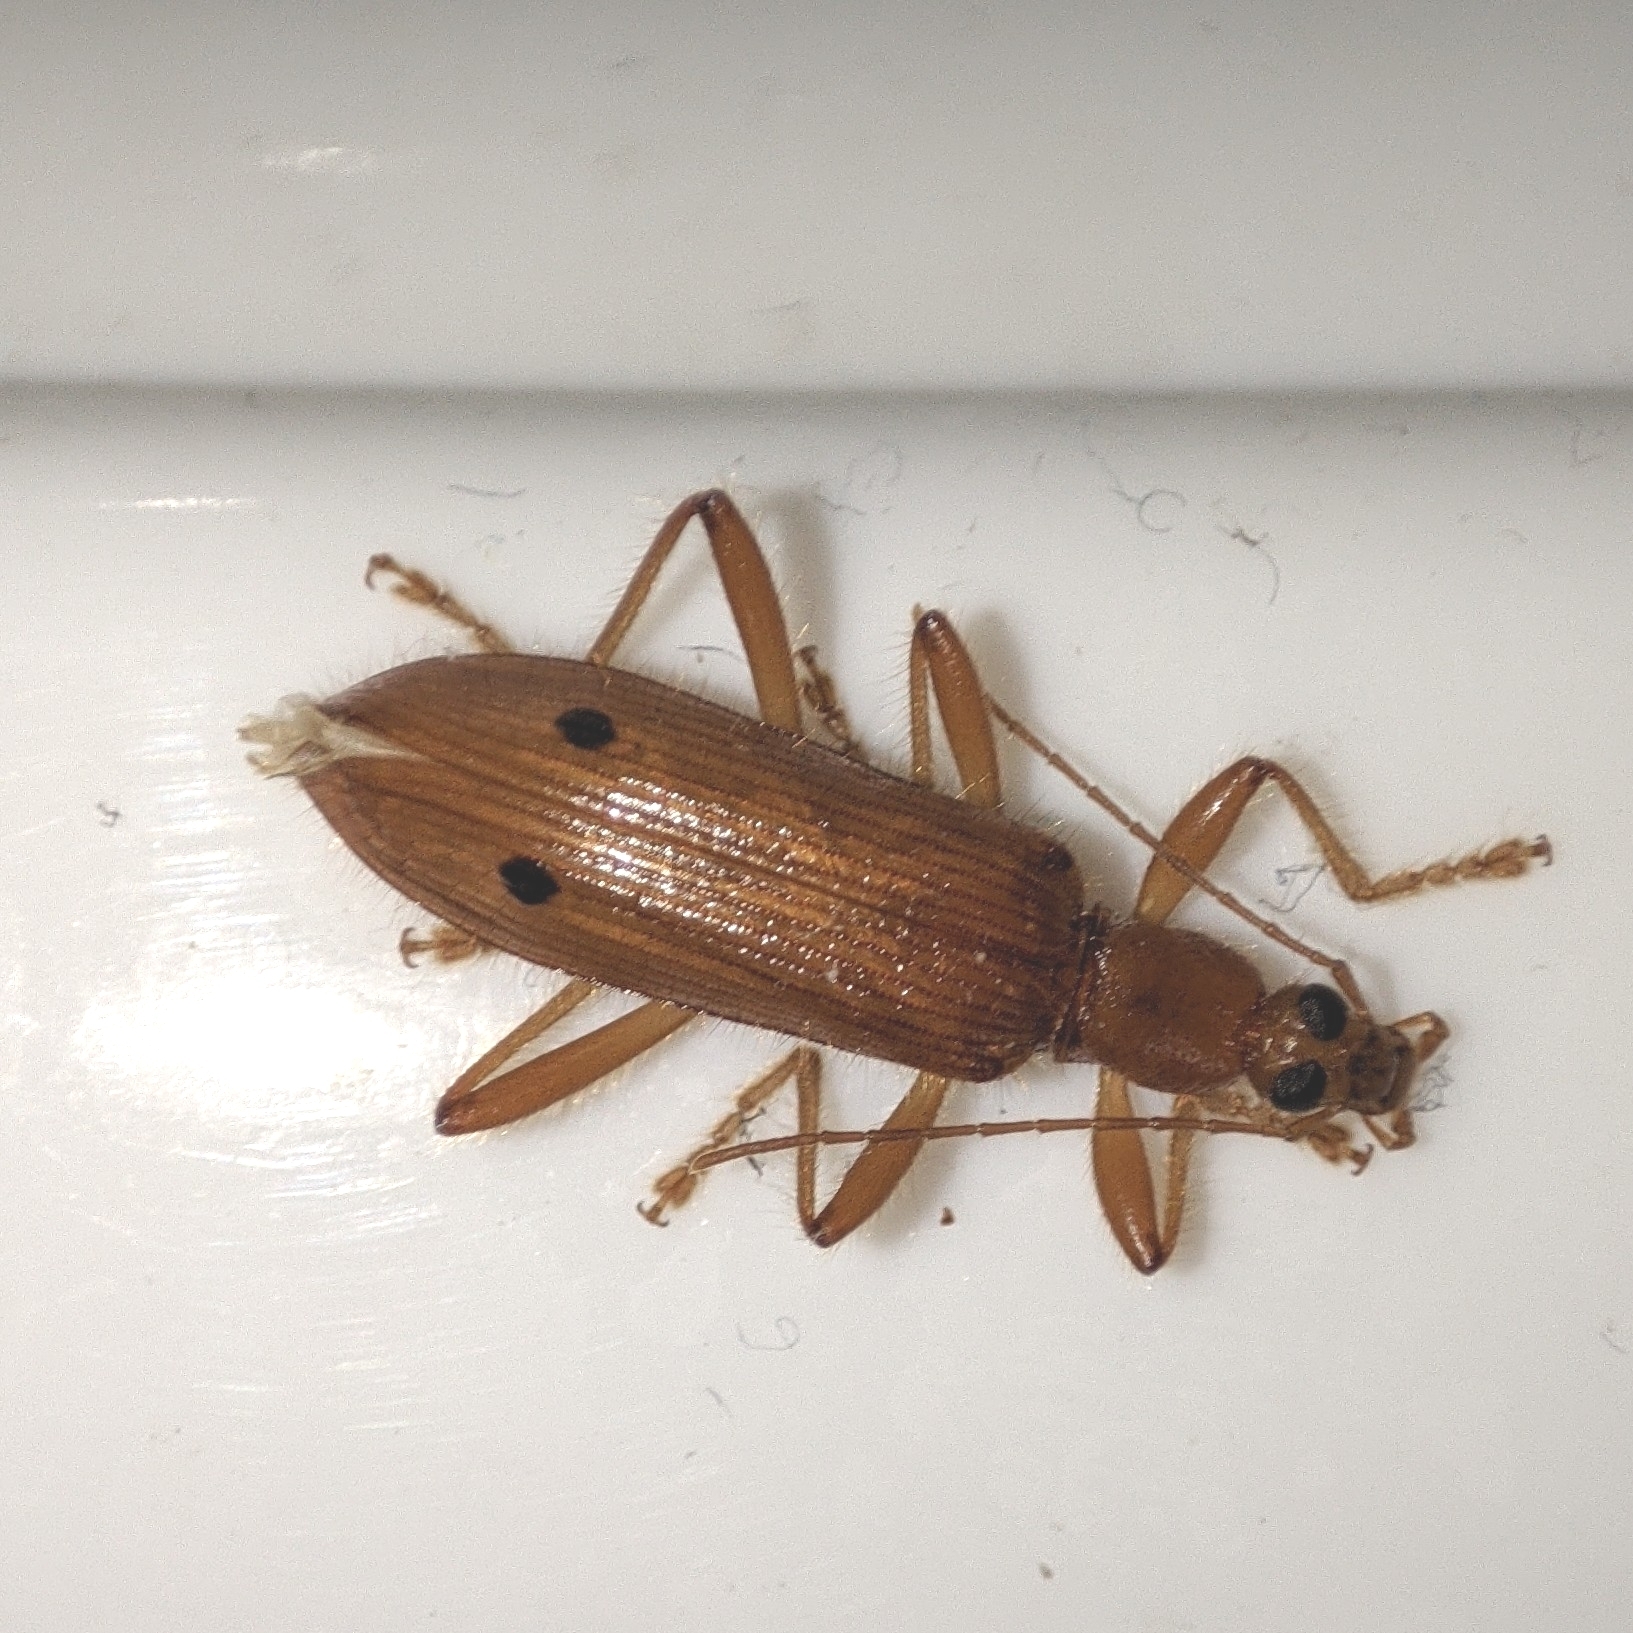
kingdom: Animalia
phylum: Arthropoda
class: Insecta
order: Coleoptera
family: Tenebrionidae
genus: Exostira
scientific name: Exostira
